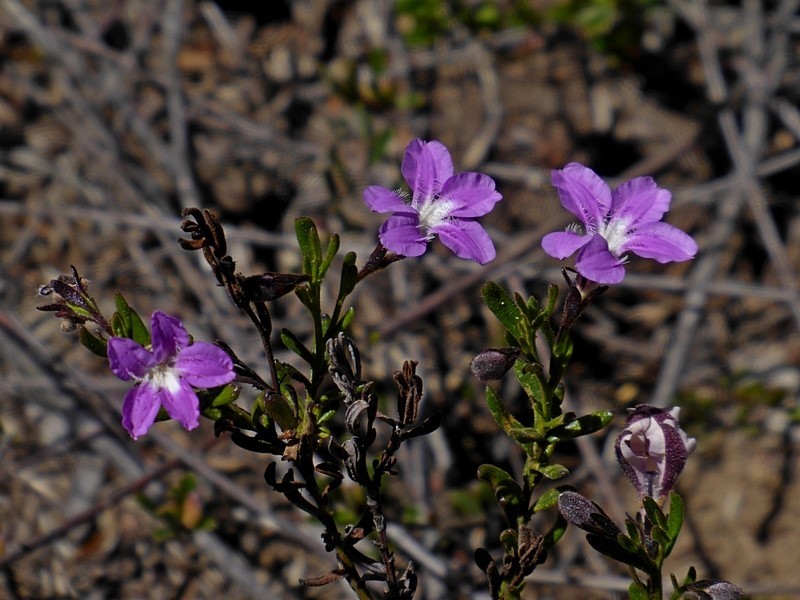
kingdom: Plantae
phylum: Tracheophyta
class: Magnoliopsida
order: Asterales
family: Goodeniaceae
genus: Goodenia
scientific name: Goodenia barbata
